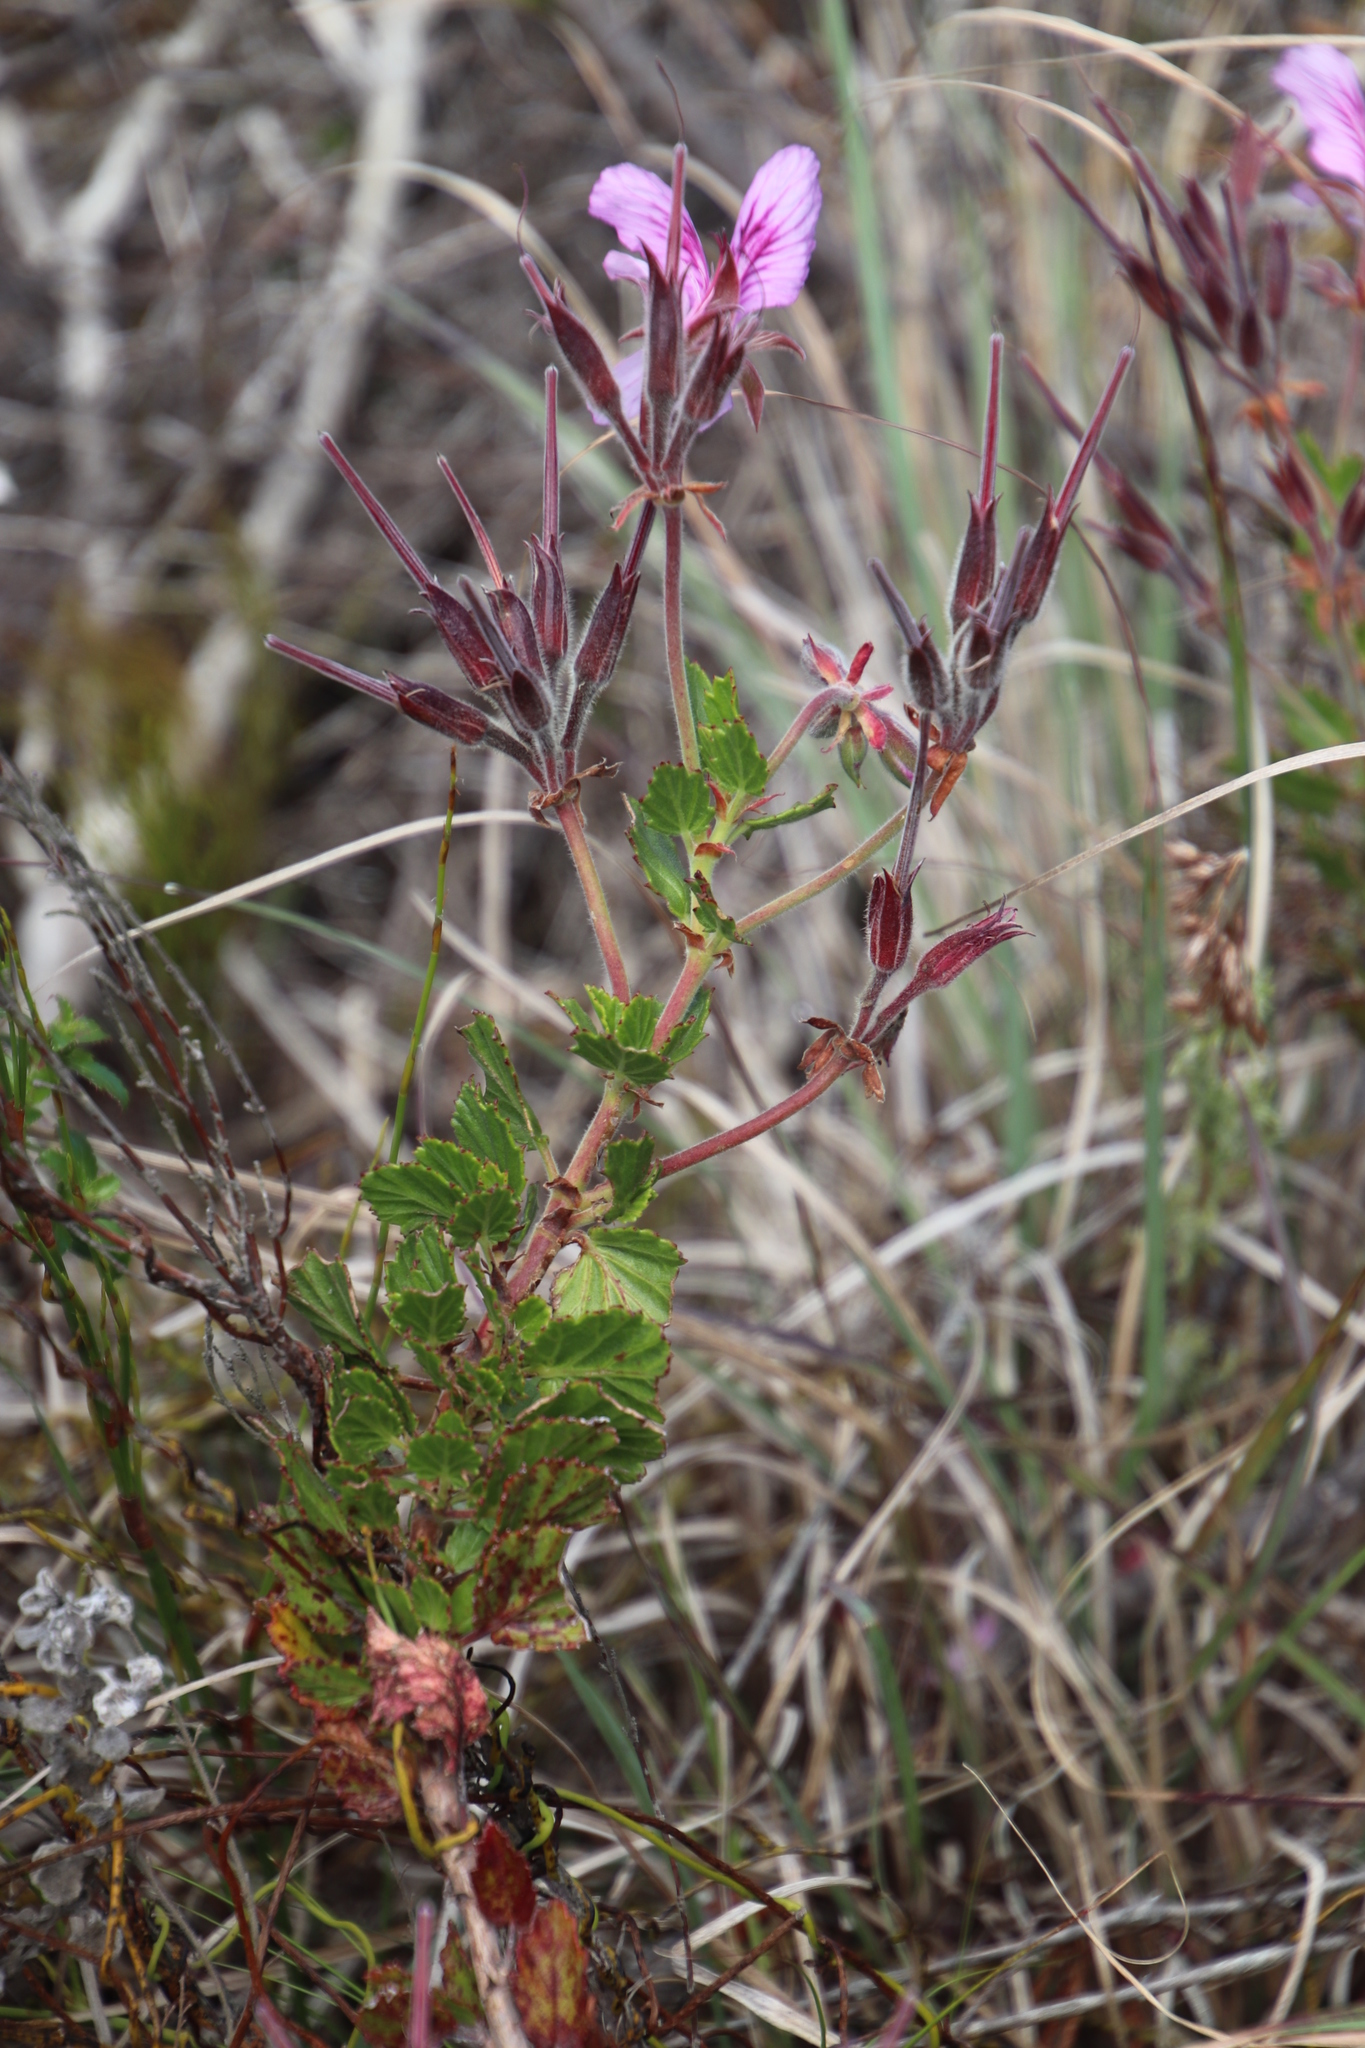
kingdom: Plantae
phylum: Tracheophyta
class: Magnoliopsida
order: Geraniales
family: Geraniaceae
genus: Pelargonium
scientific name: Pelargonium betulinum
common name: Birch-leaf pelargonium
